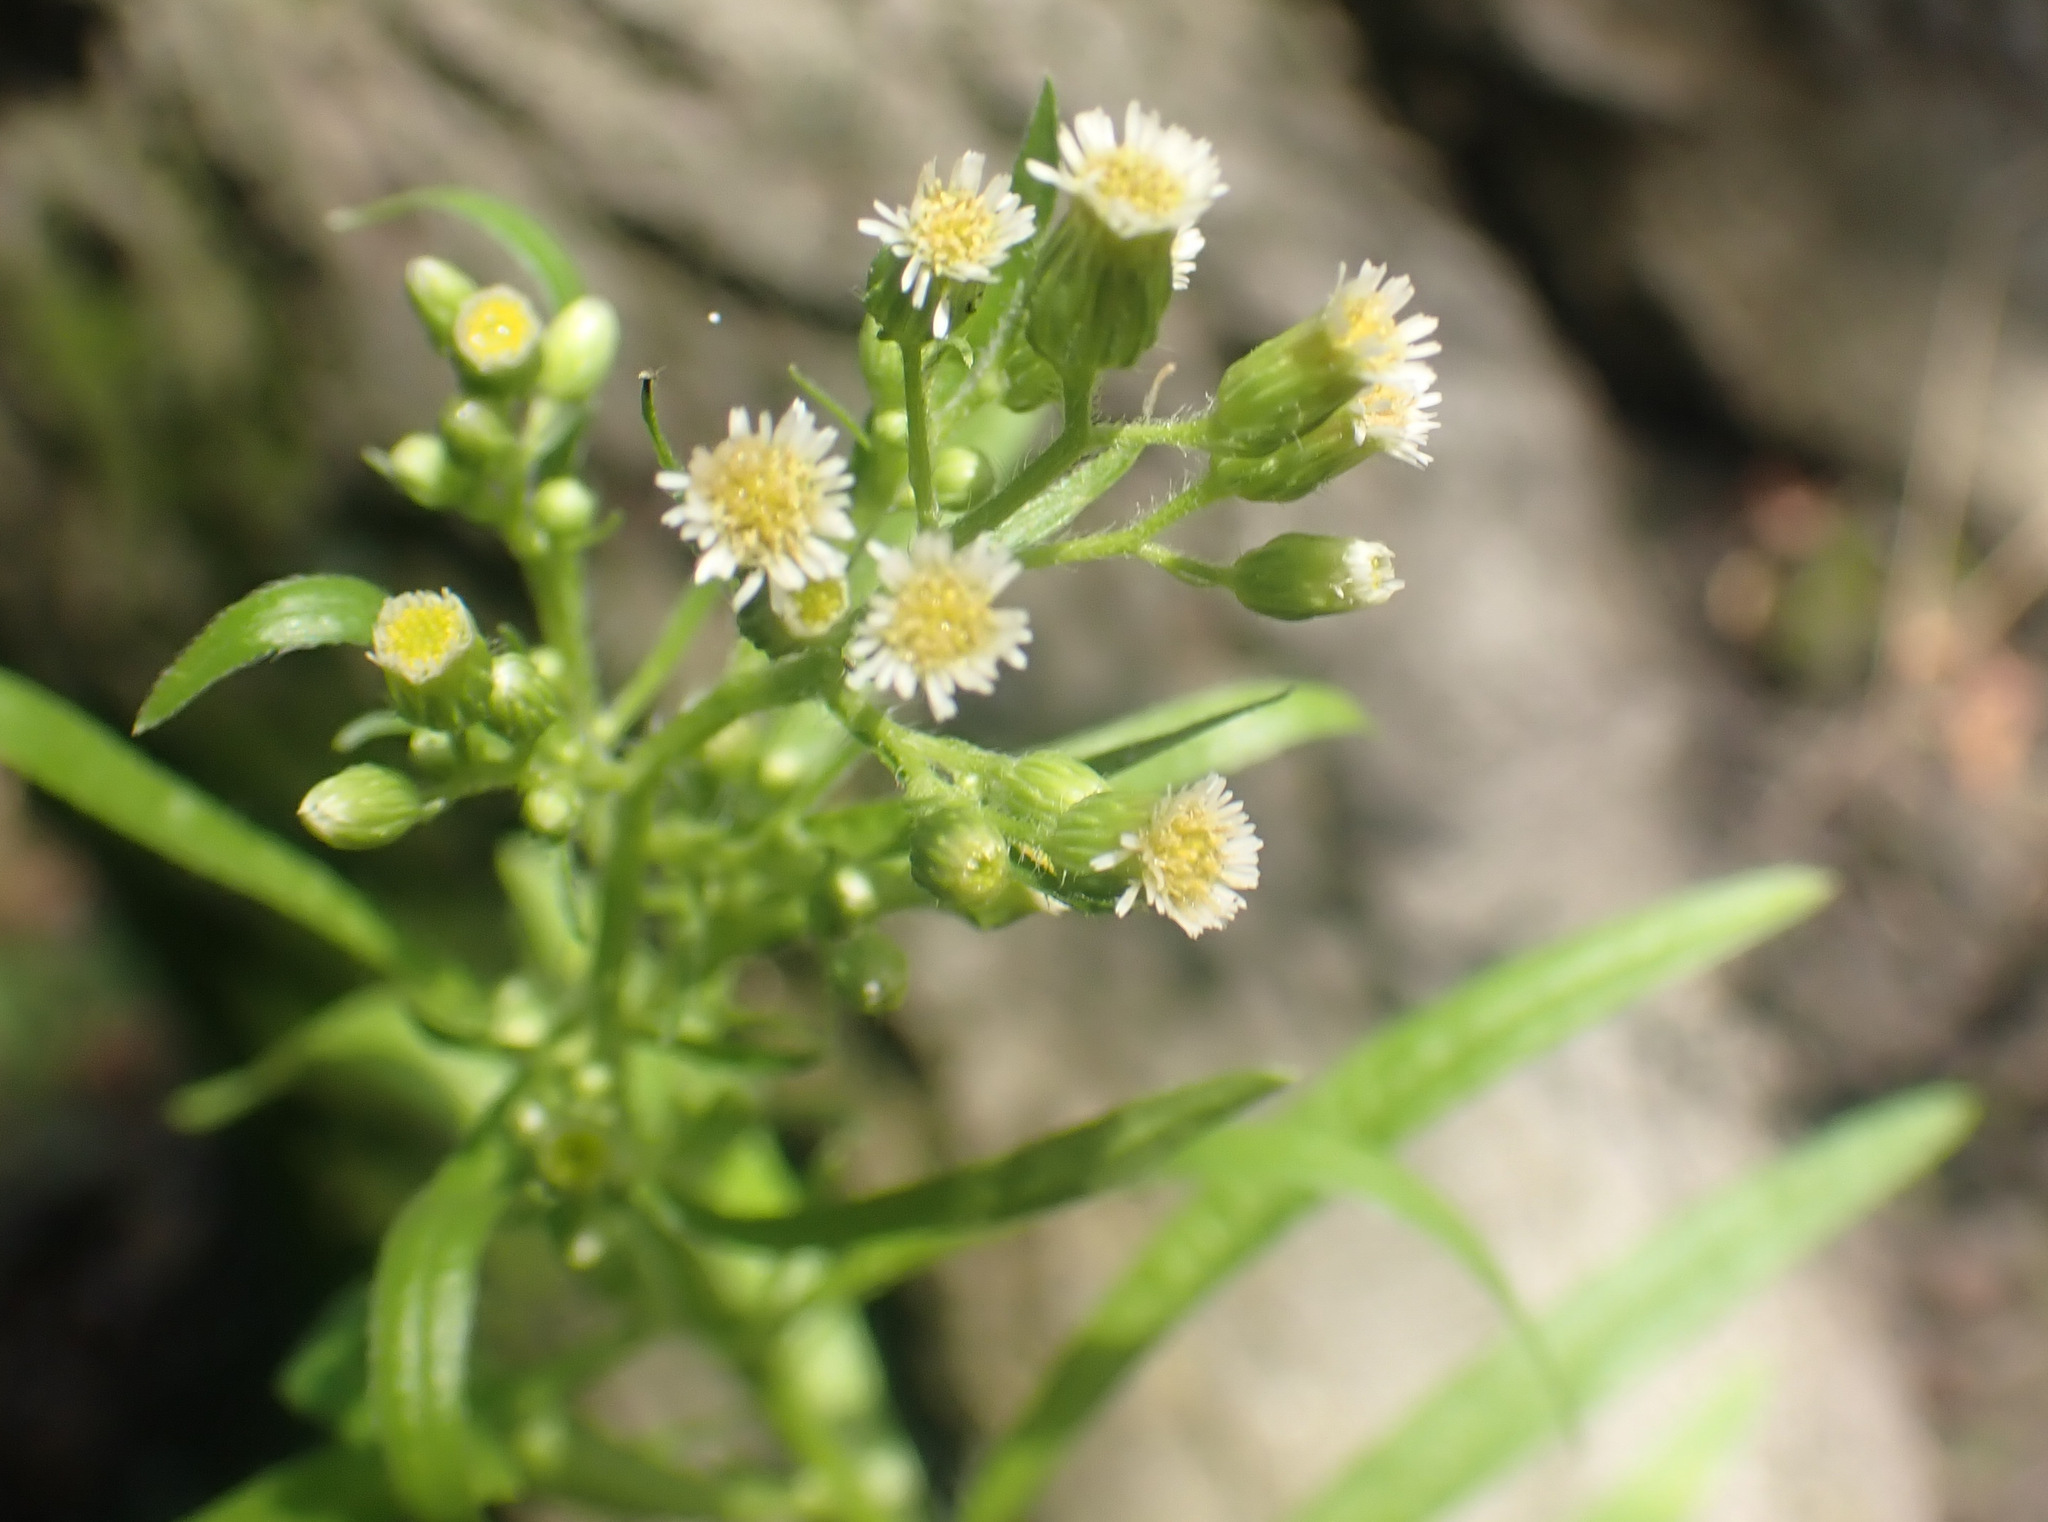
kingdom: Plantae
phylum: Tracheophyta
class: Magnoliopsida
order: Asterales
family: Asteraceae
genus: Erigeron
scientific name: Erigeron canadensis
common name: Canadian fleabane
